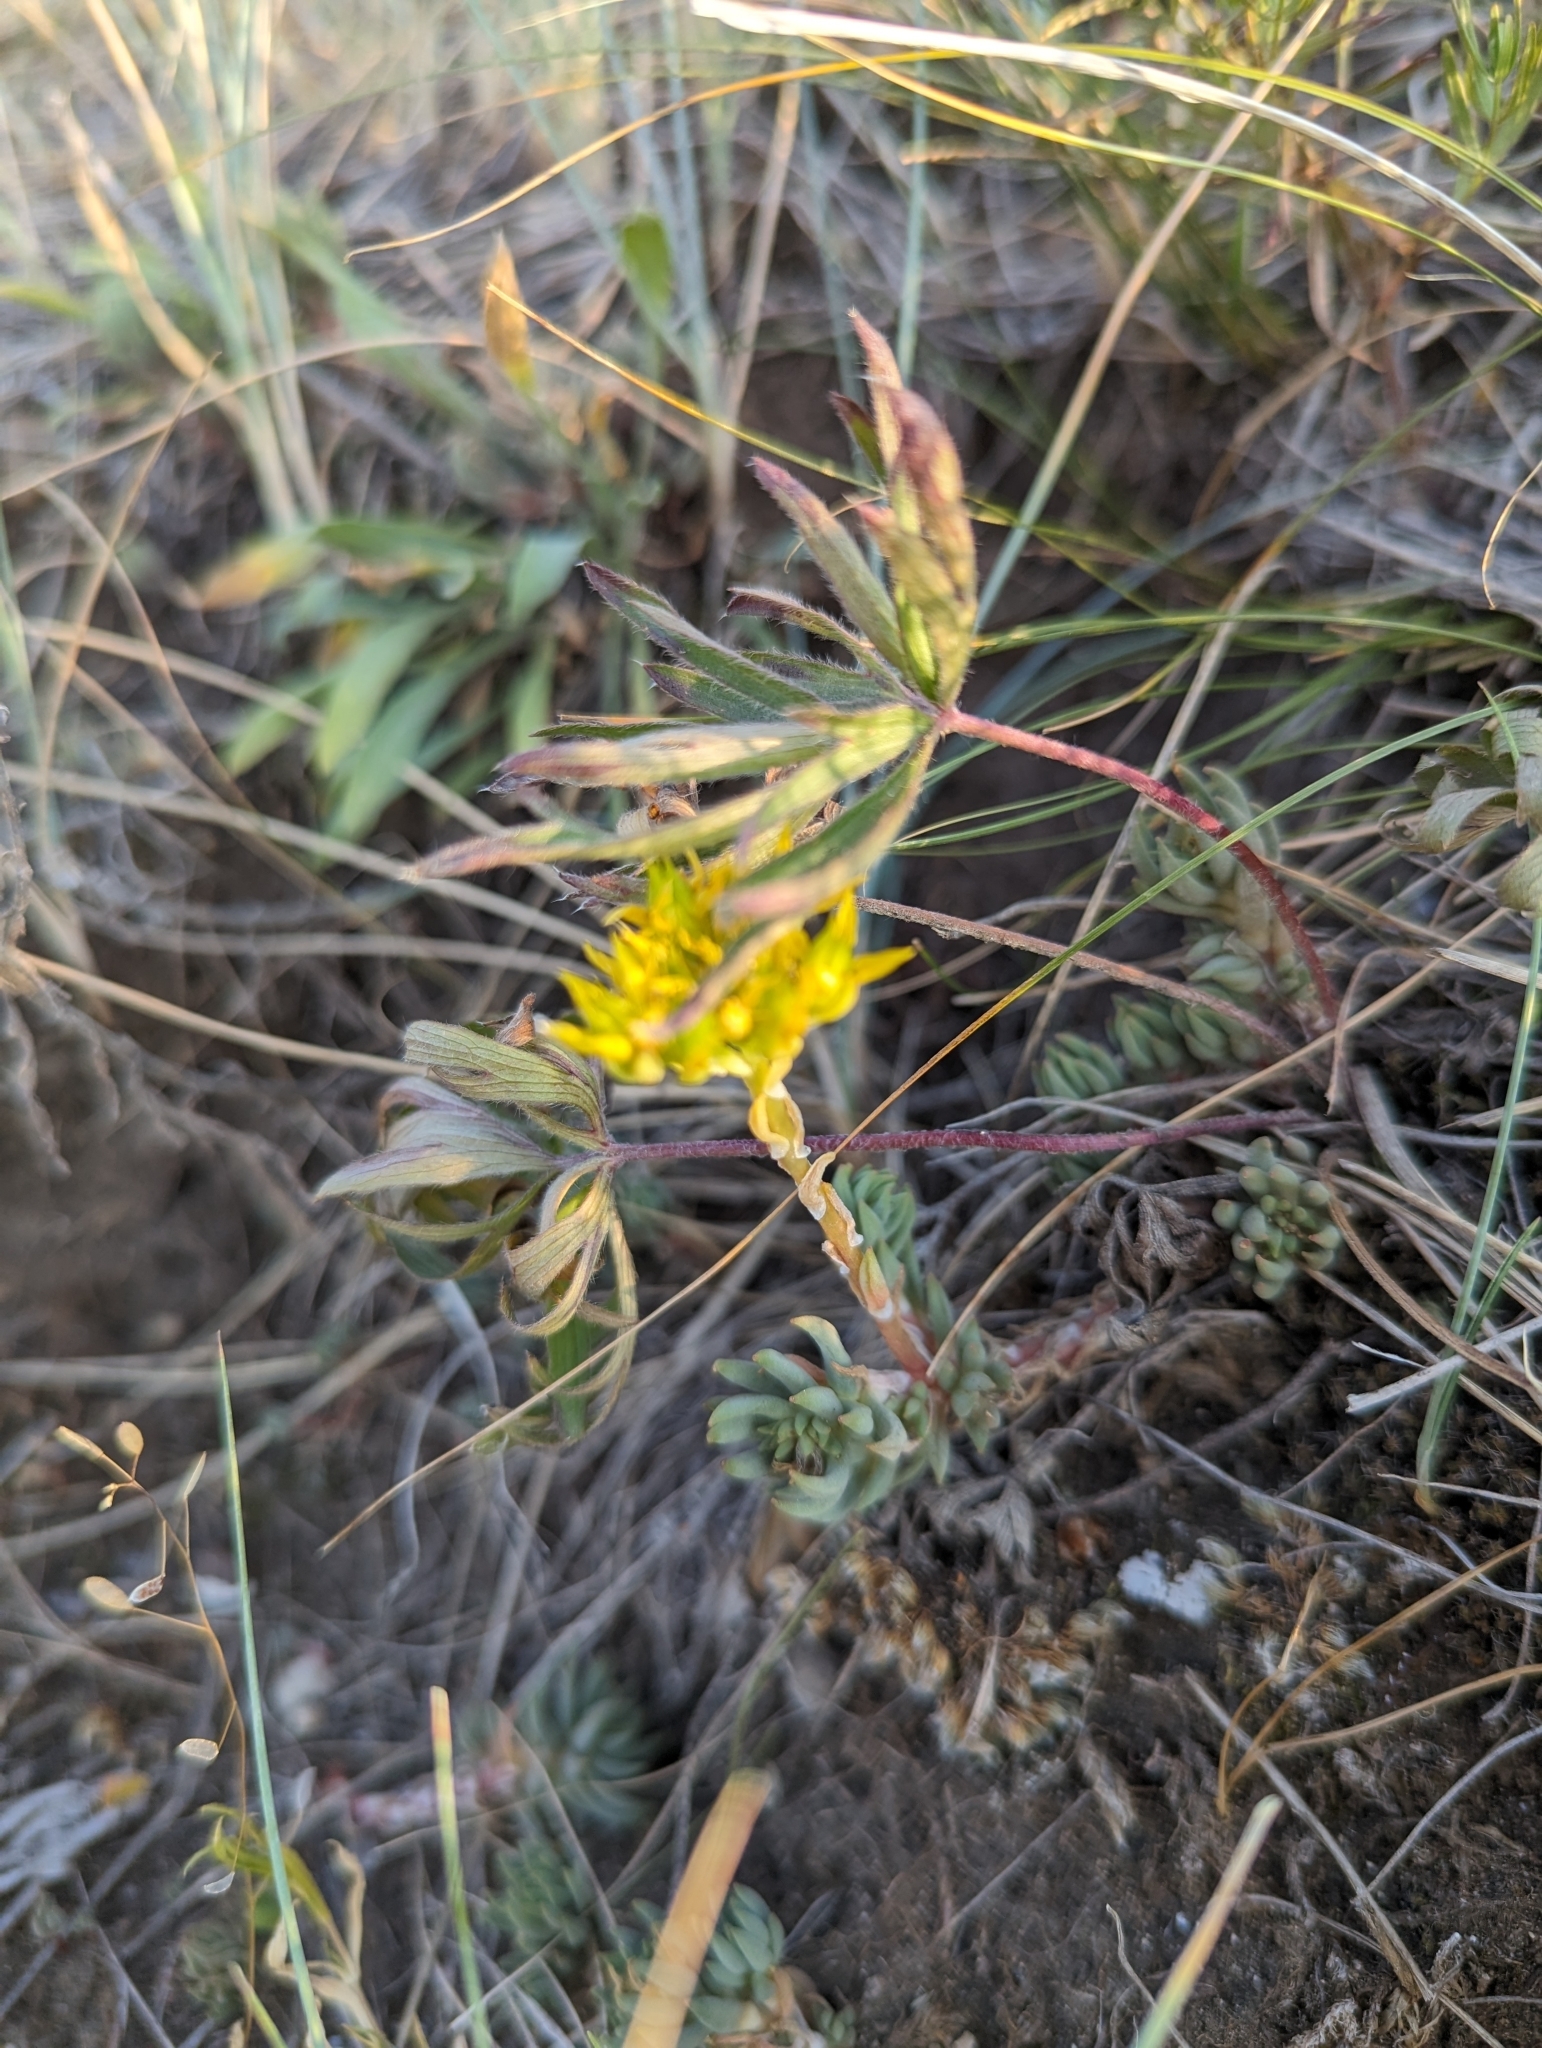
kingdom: Plantae
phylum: Tracheophyta
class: Magnoliopsida
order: Saxifragales
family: Crassulaceae
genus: Sedum
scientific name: Sedum lanceolatum
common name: Common stonecrop
